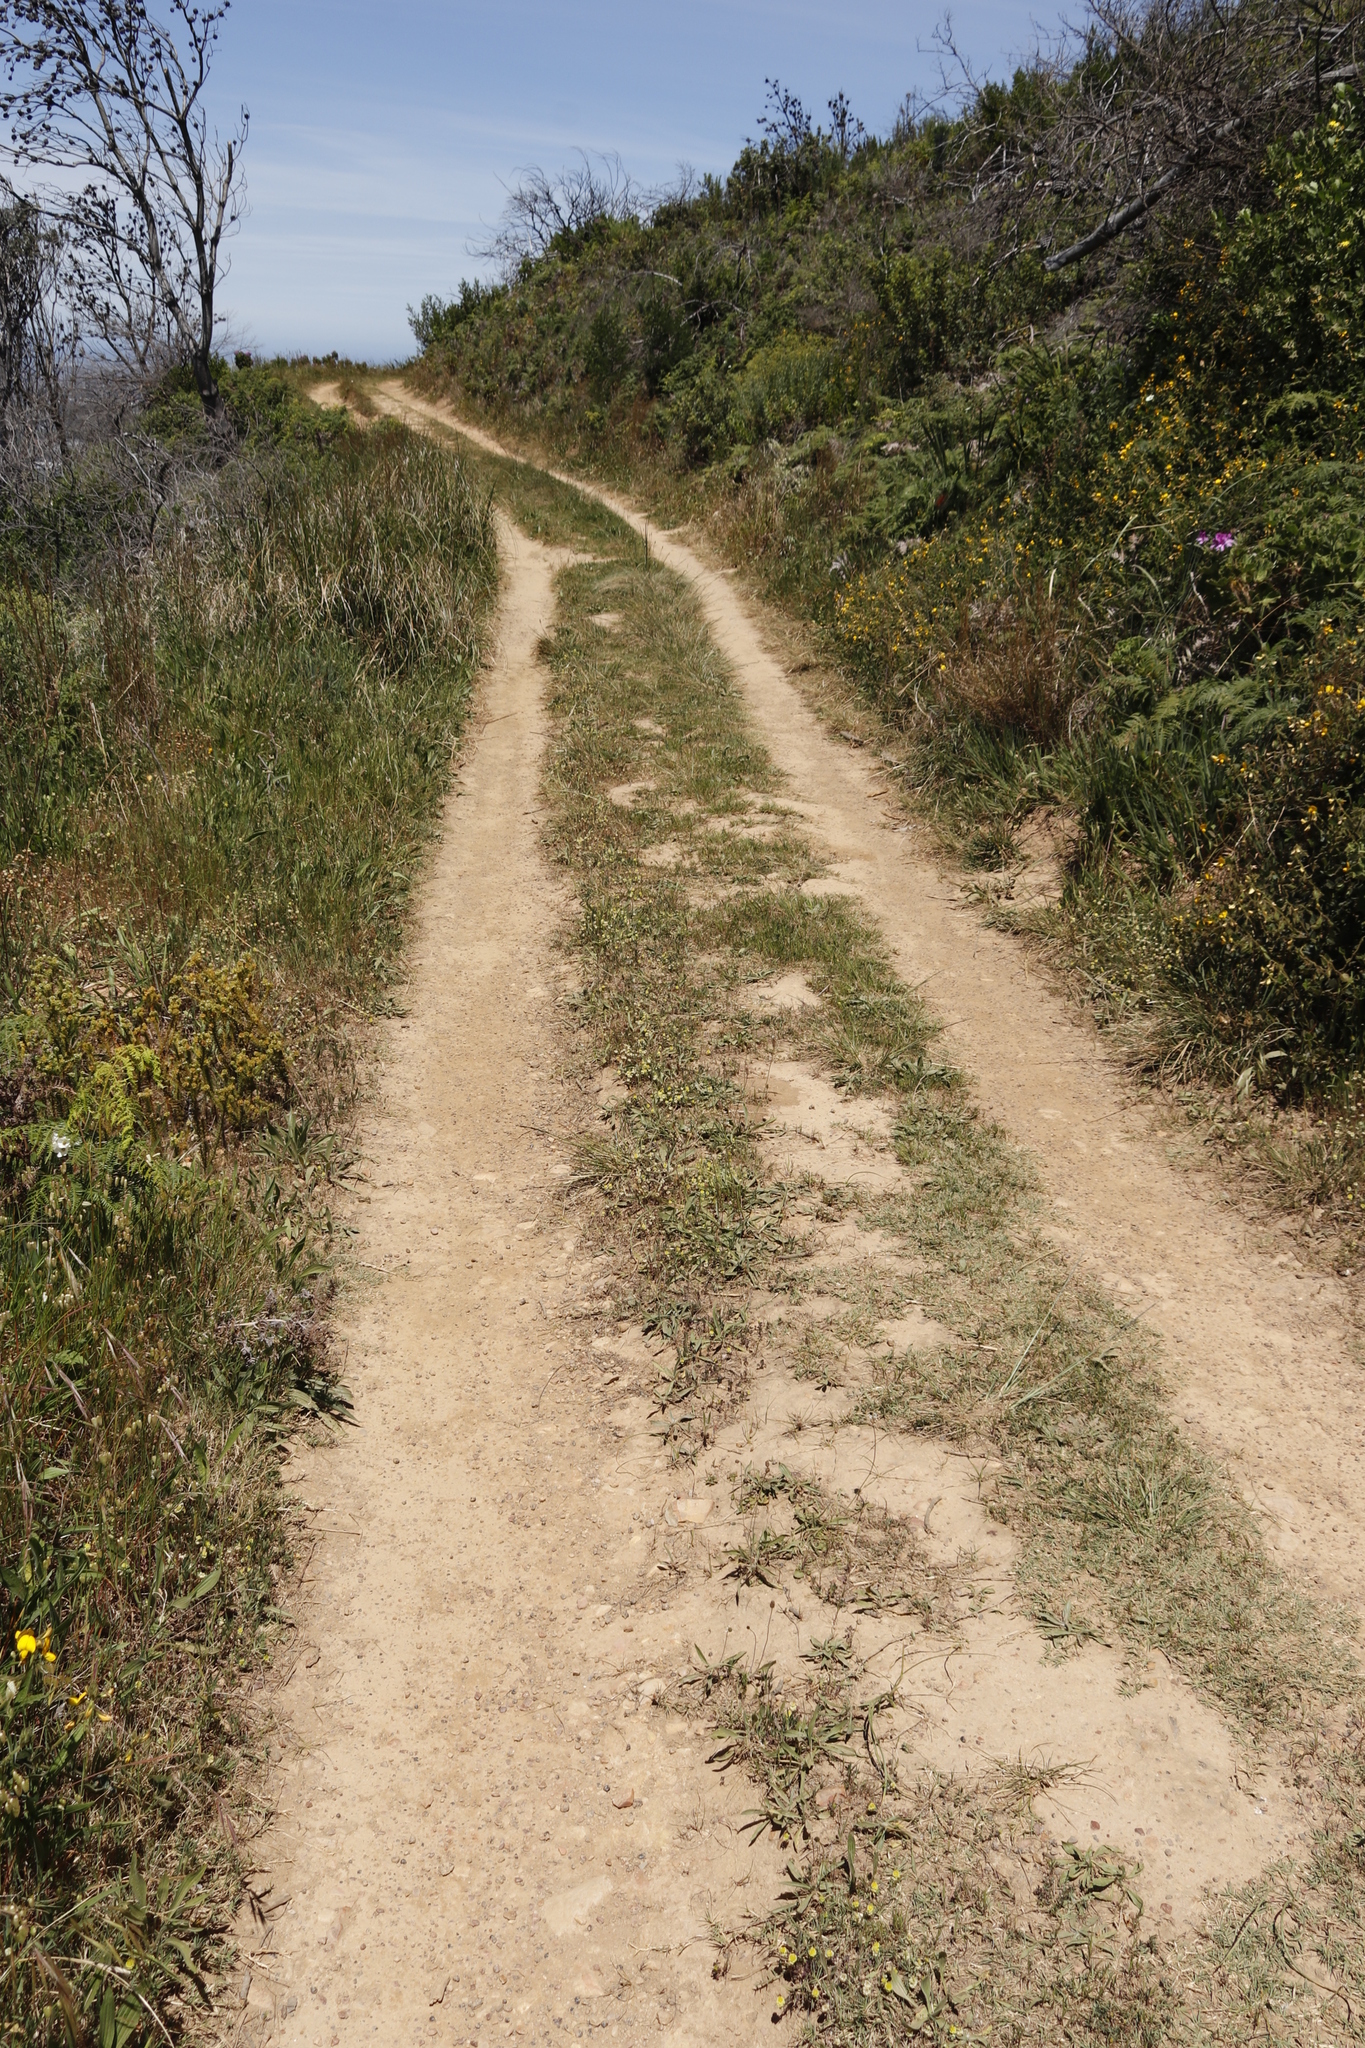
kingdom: Plantae
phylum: Tracheophyta
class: Magnoliopsida
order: Fabales
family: Fabaceae
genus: Trifolium
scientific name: Trifolium campestre
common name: Field clover
